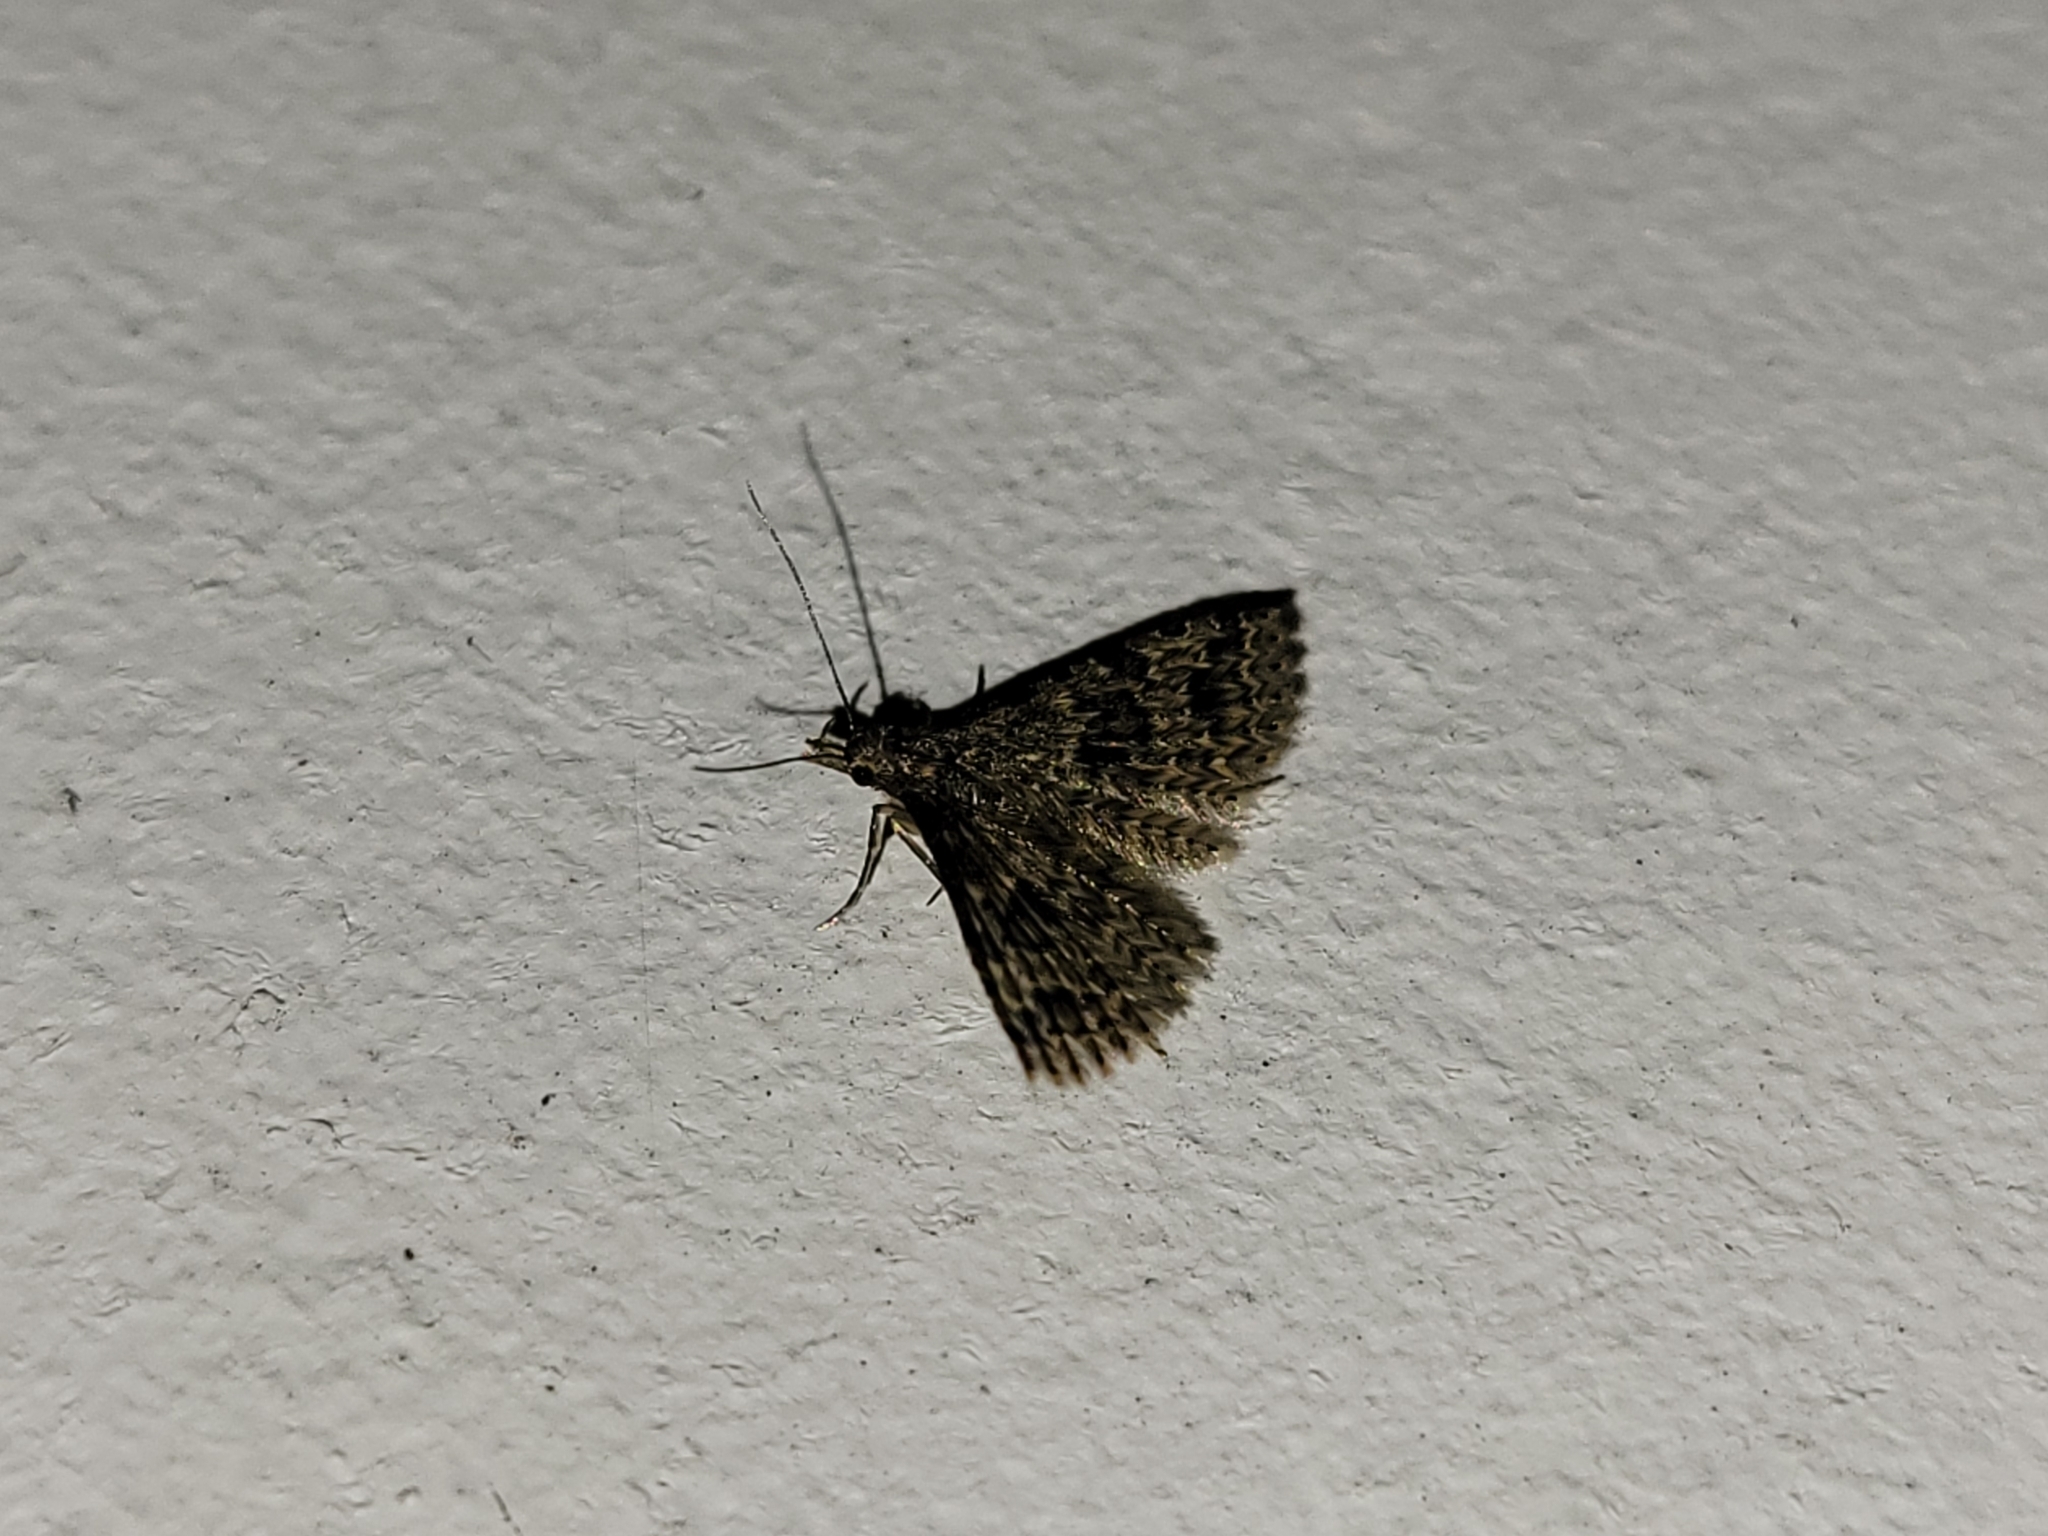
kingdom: Animalia
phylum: Arthropoda
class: Insecta
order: Lepidoptera
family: Alucitidae
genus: Alucita
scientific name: Alucita hexadactyla
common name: Twenty-plume moth
